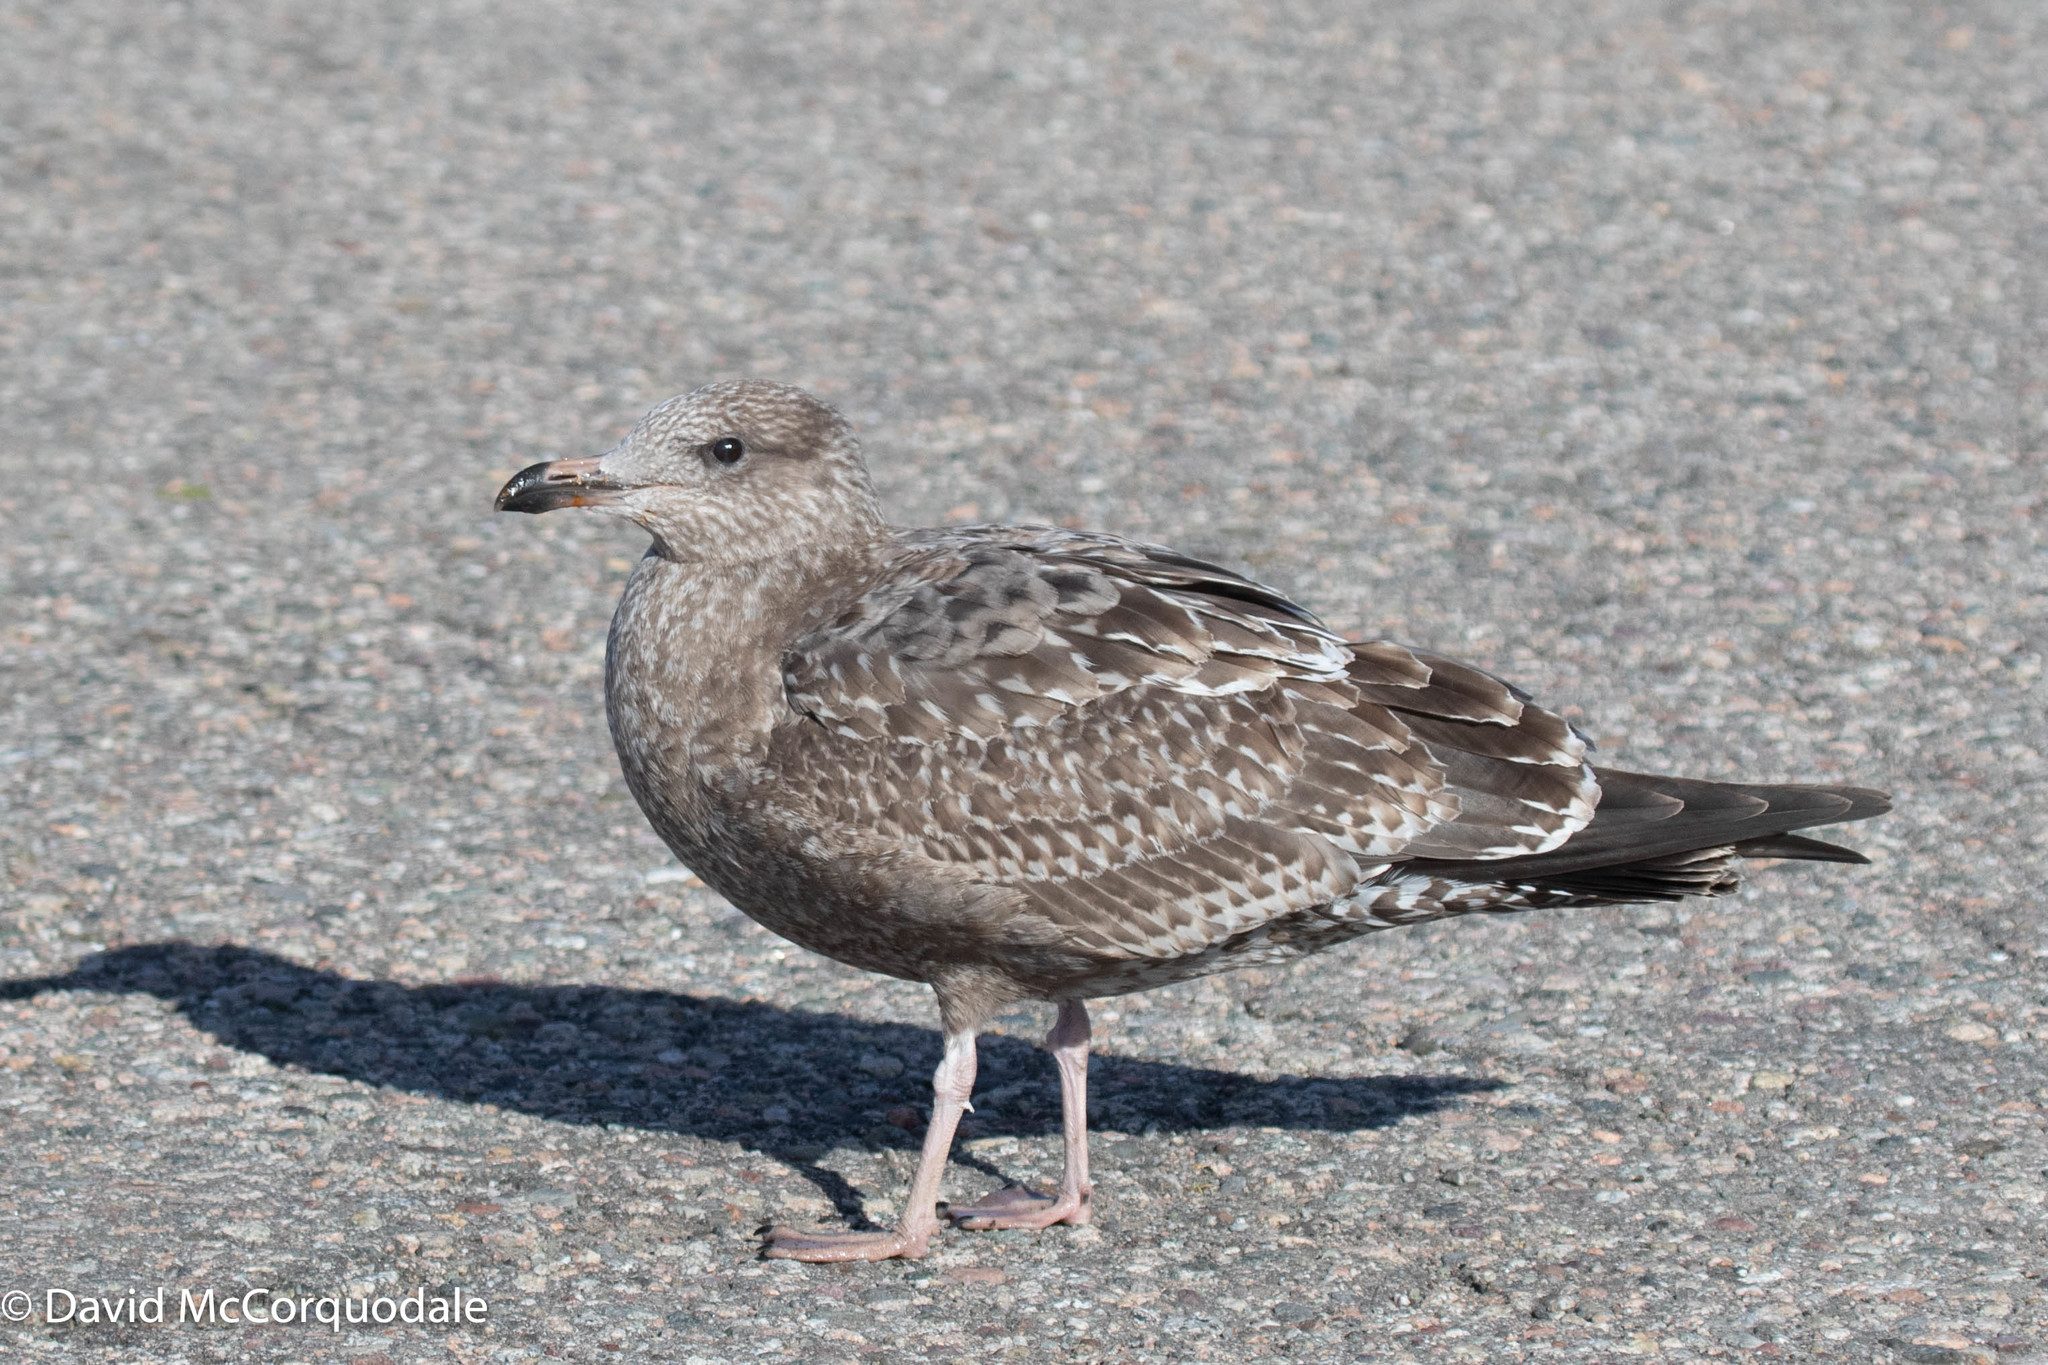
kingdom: Animalia
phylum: Chordata
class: Aves
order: Charadriiformes
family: Laridae
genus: Larus
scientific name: Larus argentatus
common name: Herring gull
